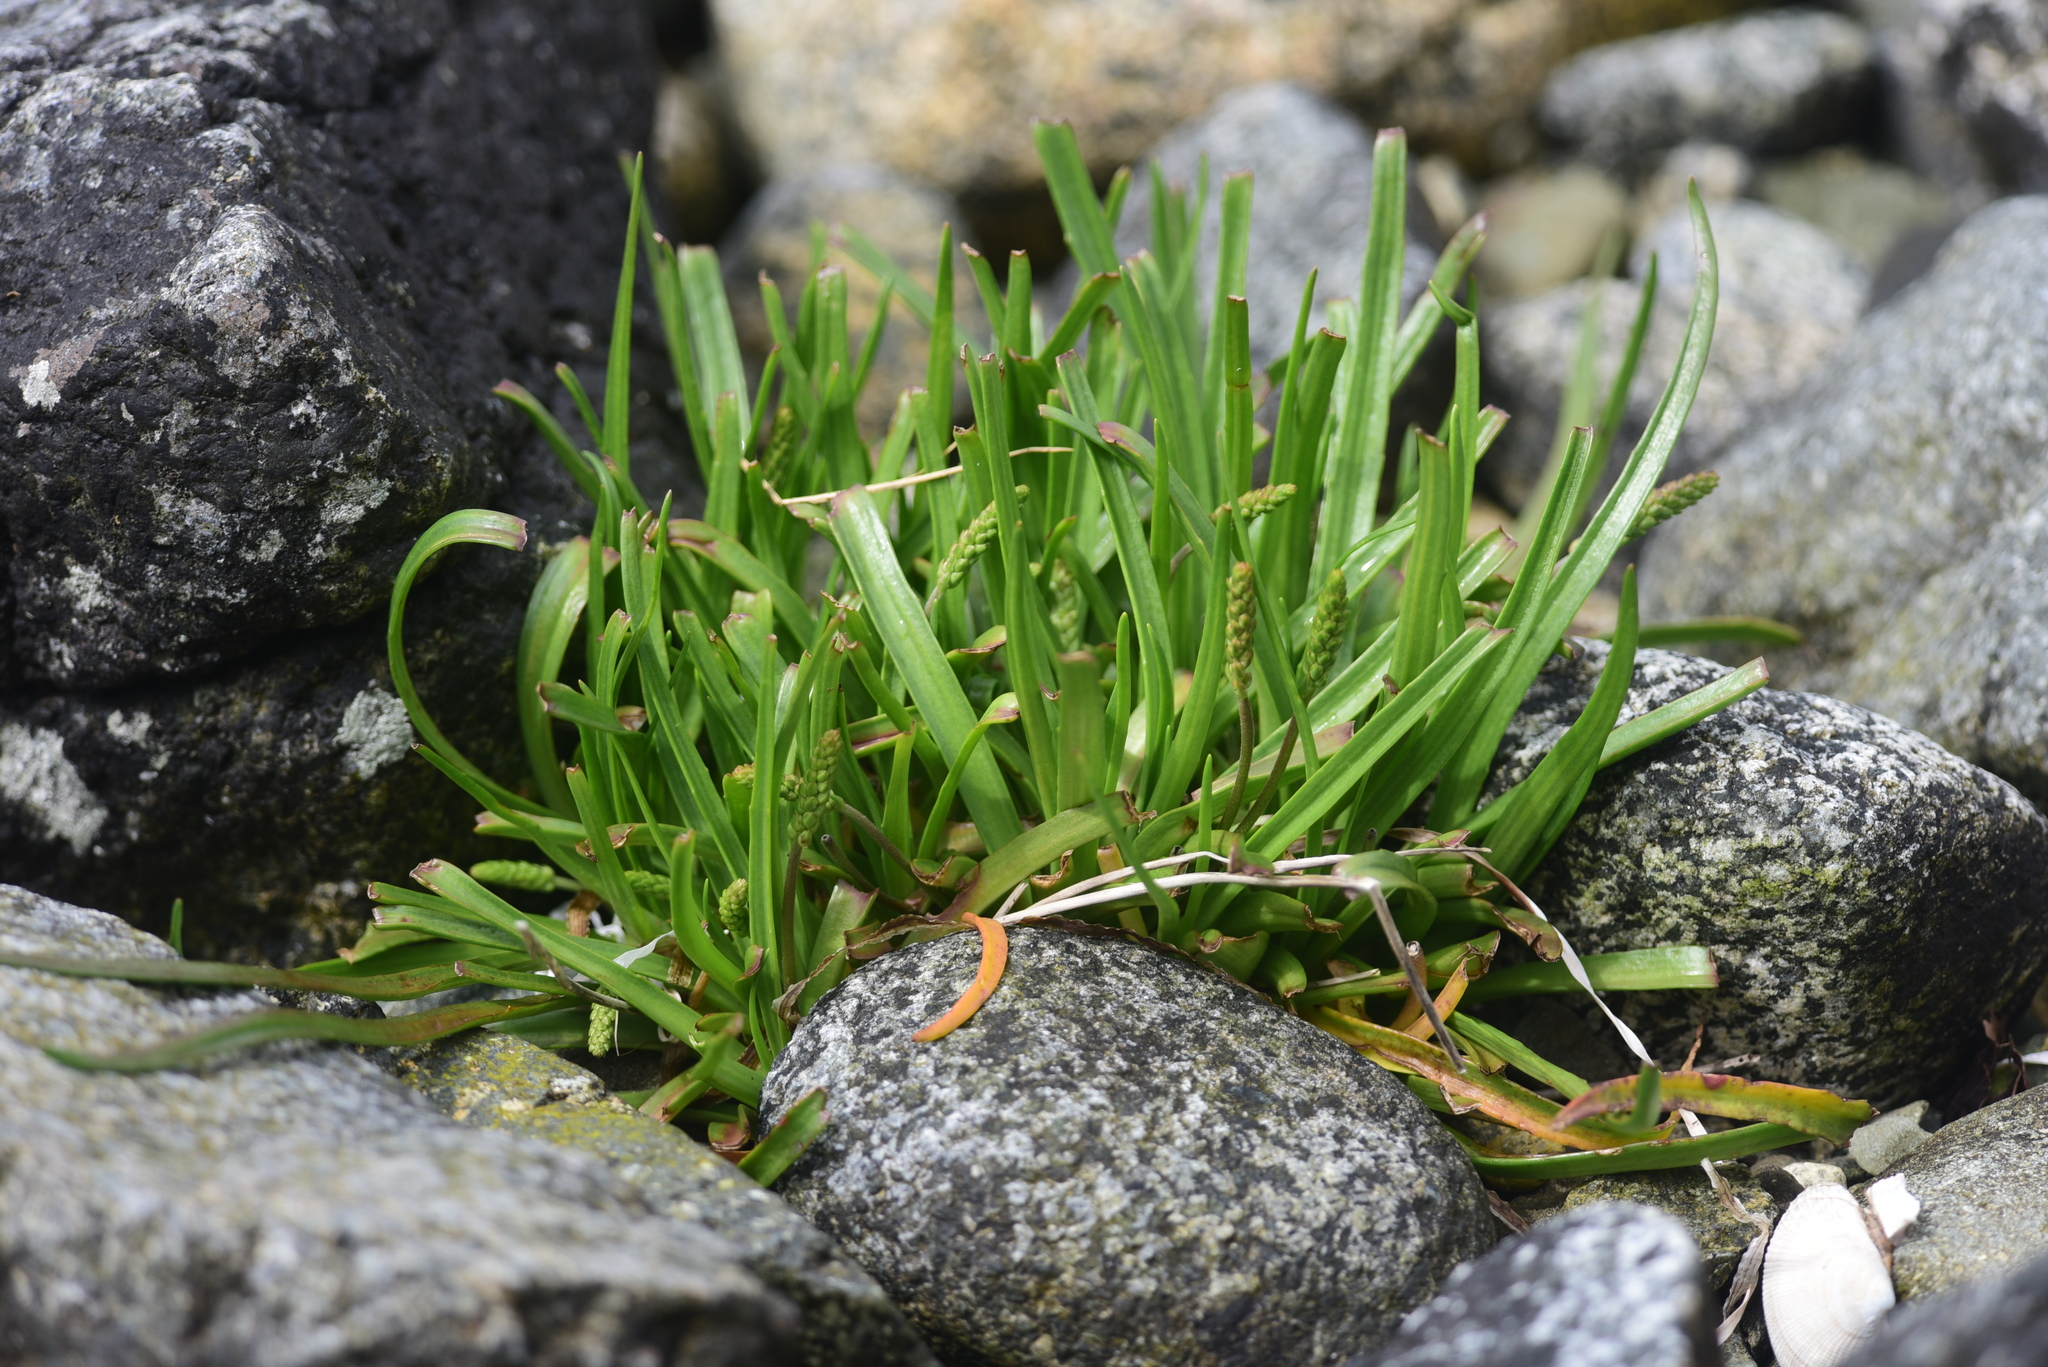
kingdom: Plantae
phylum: Tracheophyta
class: Magnoliopsida
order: Lamiales
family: Plantaginaceae
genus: Plantago
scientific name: Plantago maritima
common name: Sea plantain
